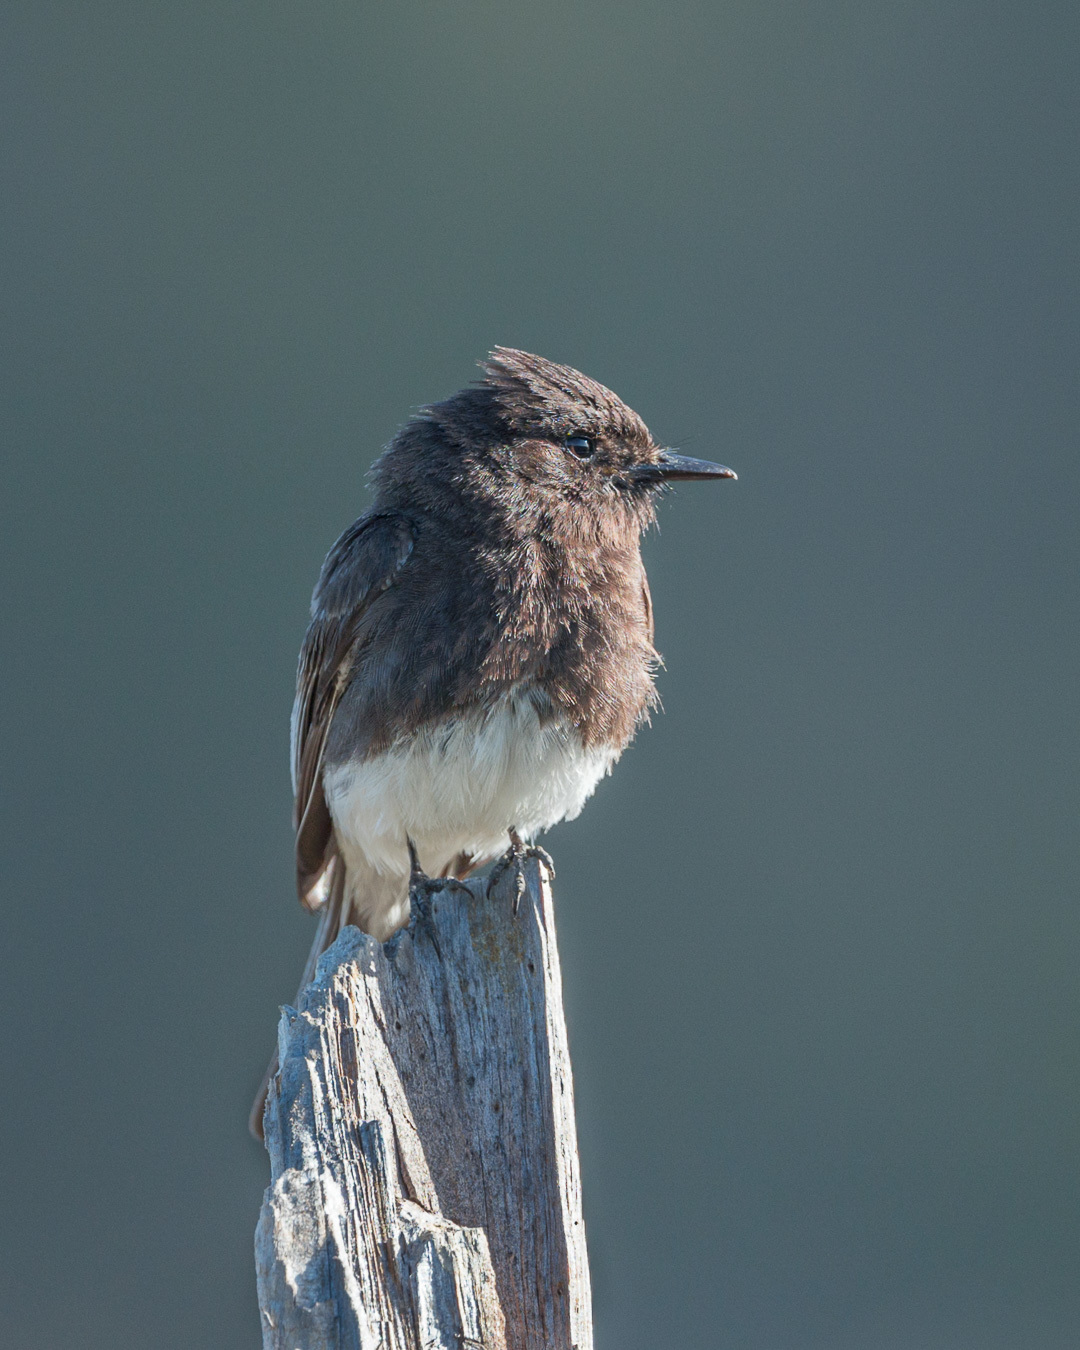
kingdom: Animalia
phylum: Chordata
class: Aves
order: Passeriformes
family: Tyrannidae
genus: Sayornis
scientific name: Sayornis nigricans
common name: Black phoebe
